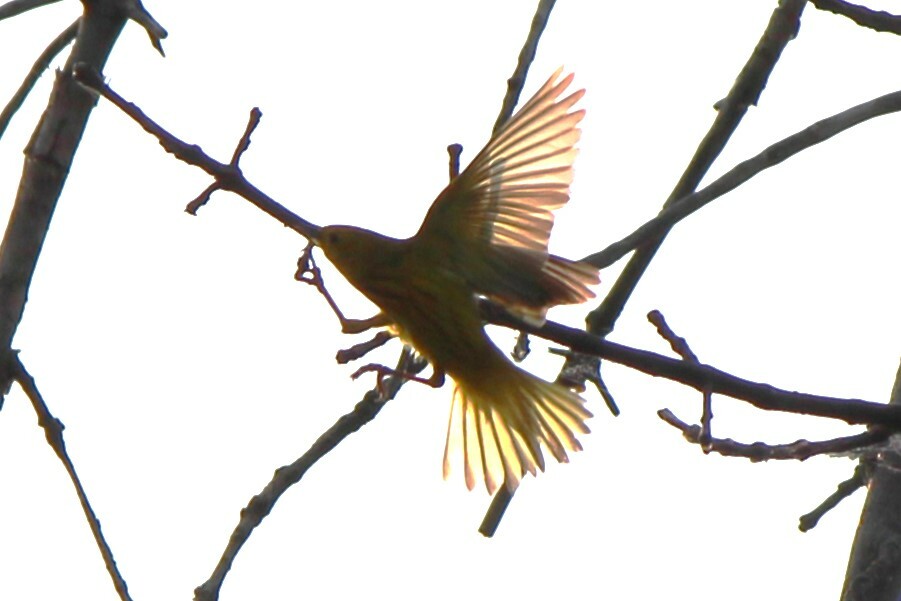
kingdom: Animalia
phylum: Chordata
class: Aves
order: Passeriformes
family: Parulidae
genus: Setophaga
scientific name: Setophaga petechia
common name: Yellow warbler
